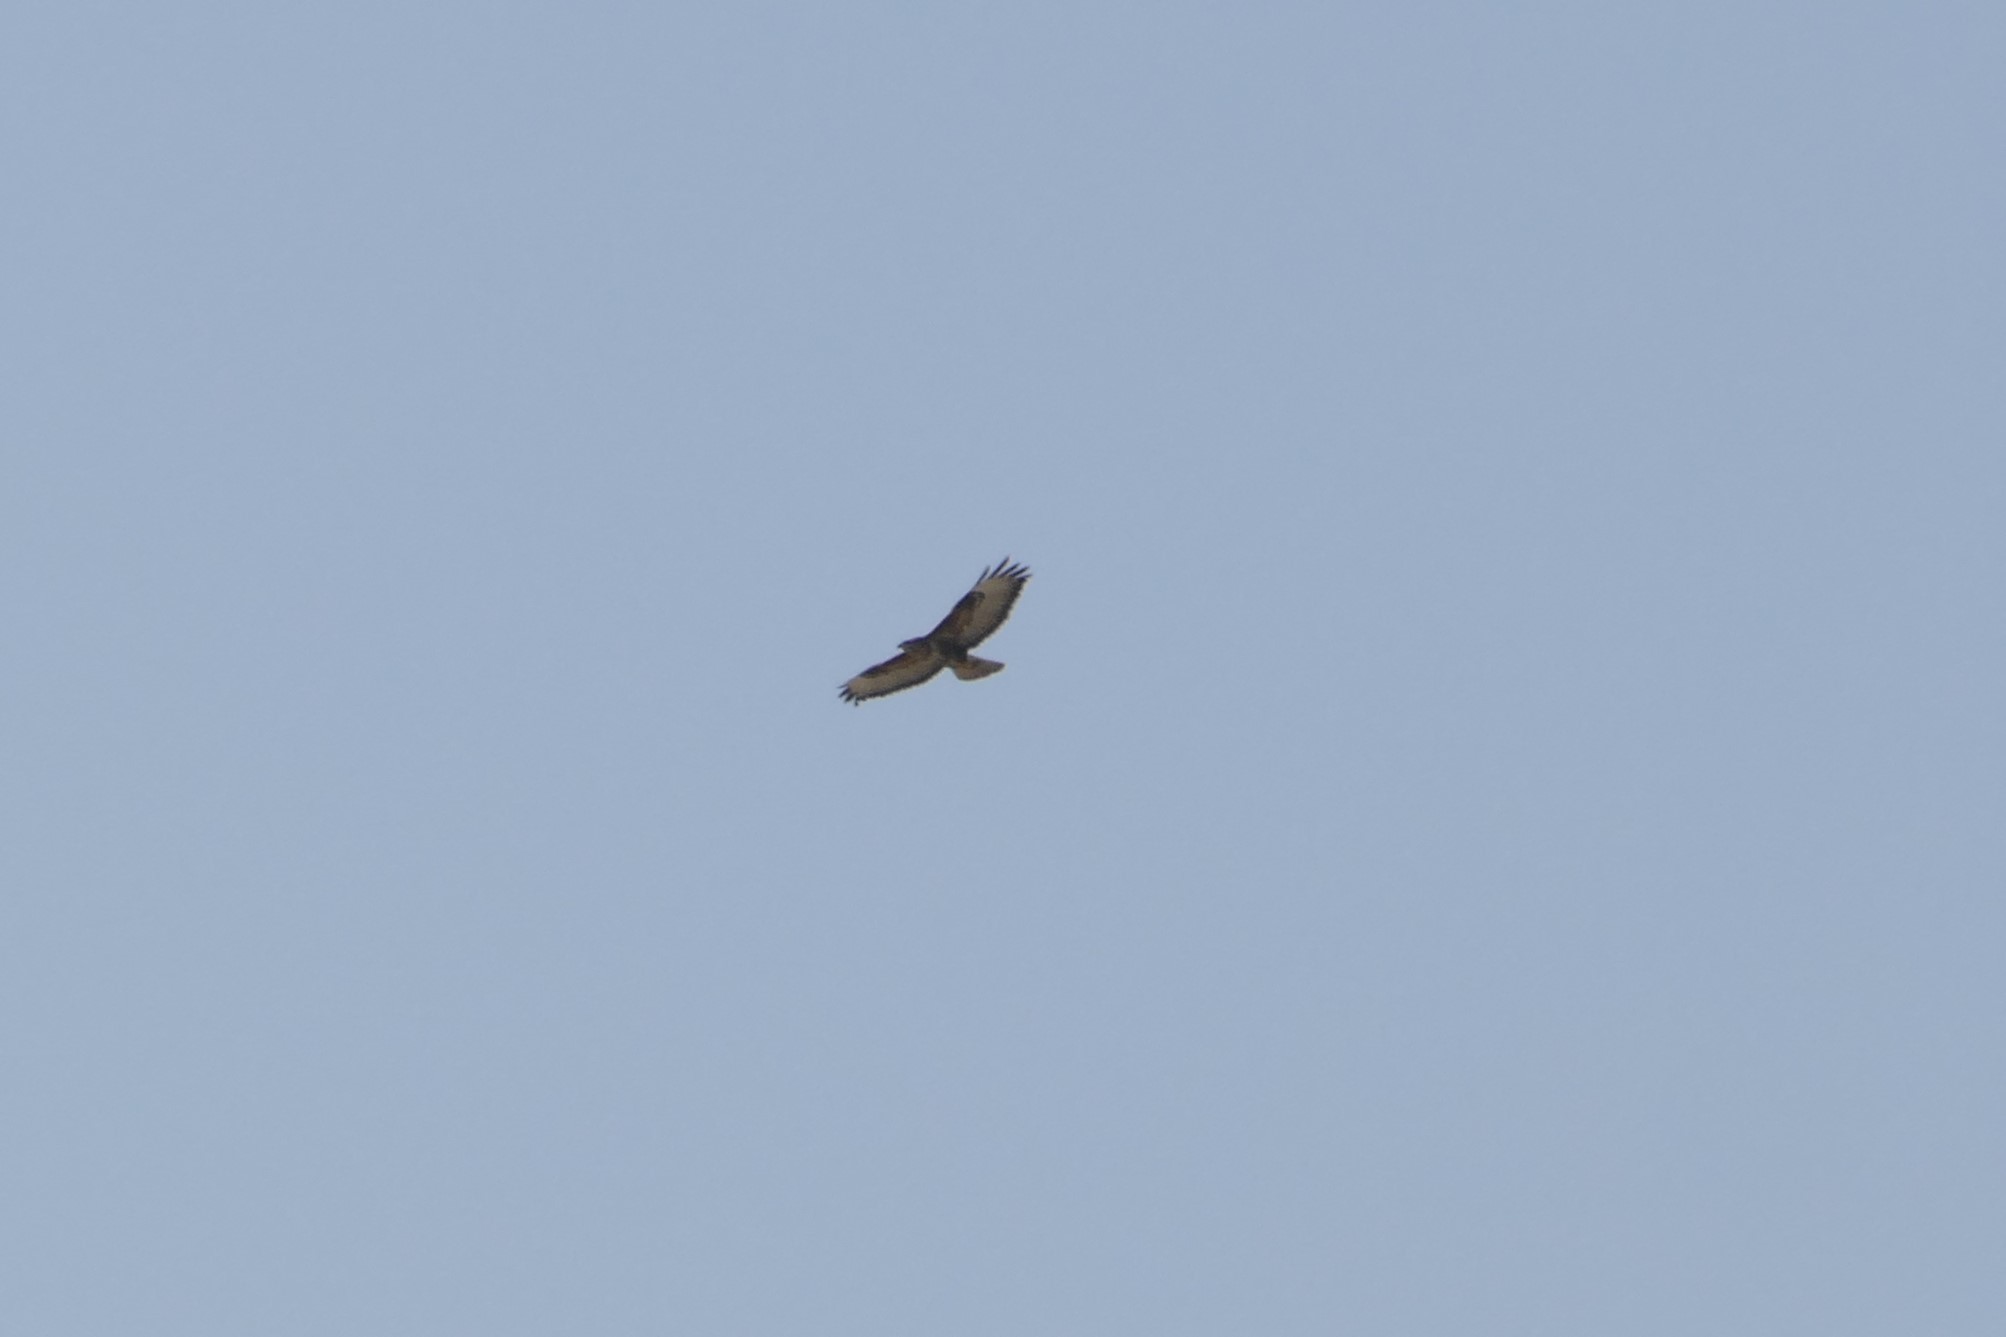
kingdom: Animalia
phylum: Chordata
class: Aves
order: Accipitriformes
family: Accipitridae
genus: Buteo
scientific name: Buteo buteo
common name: Common buzzard
